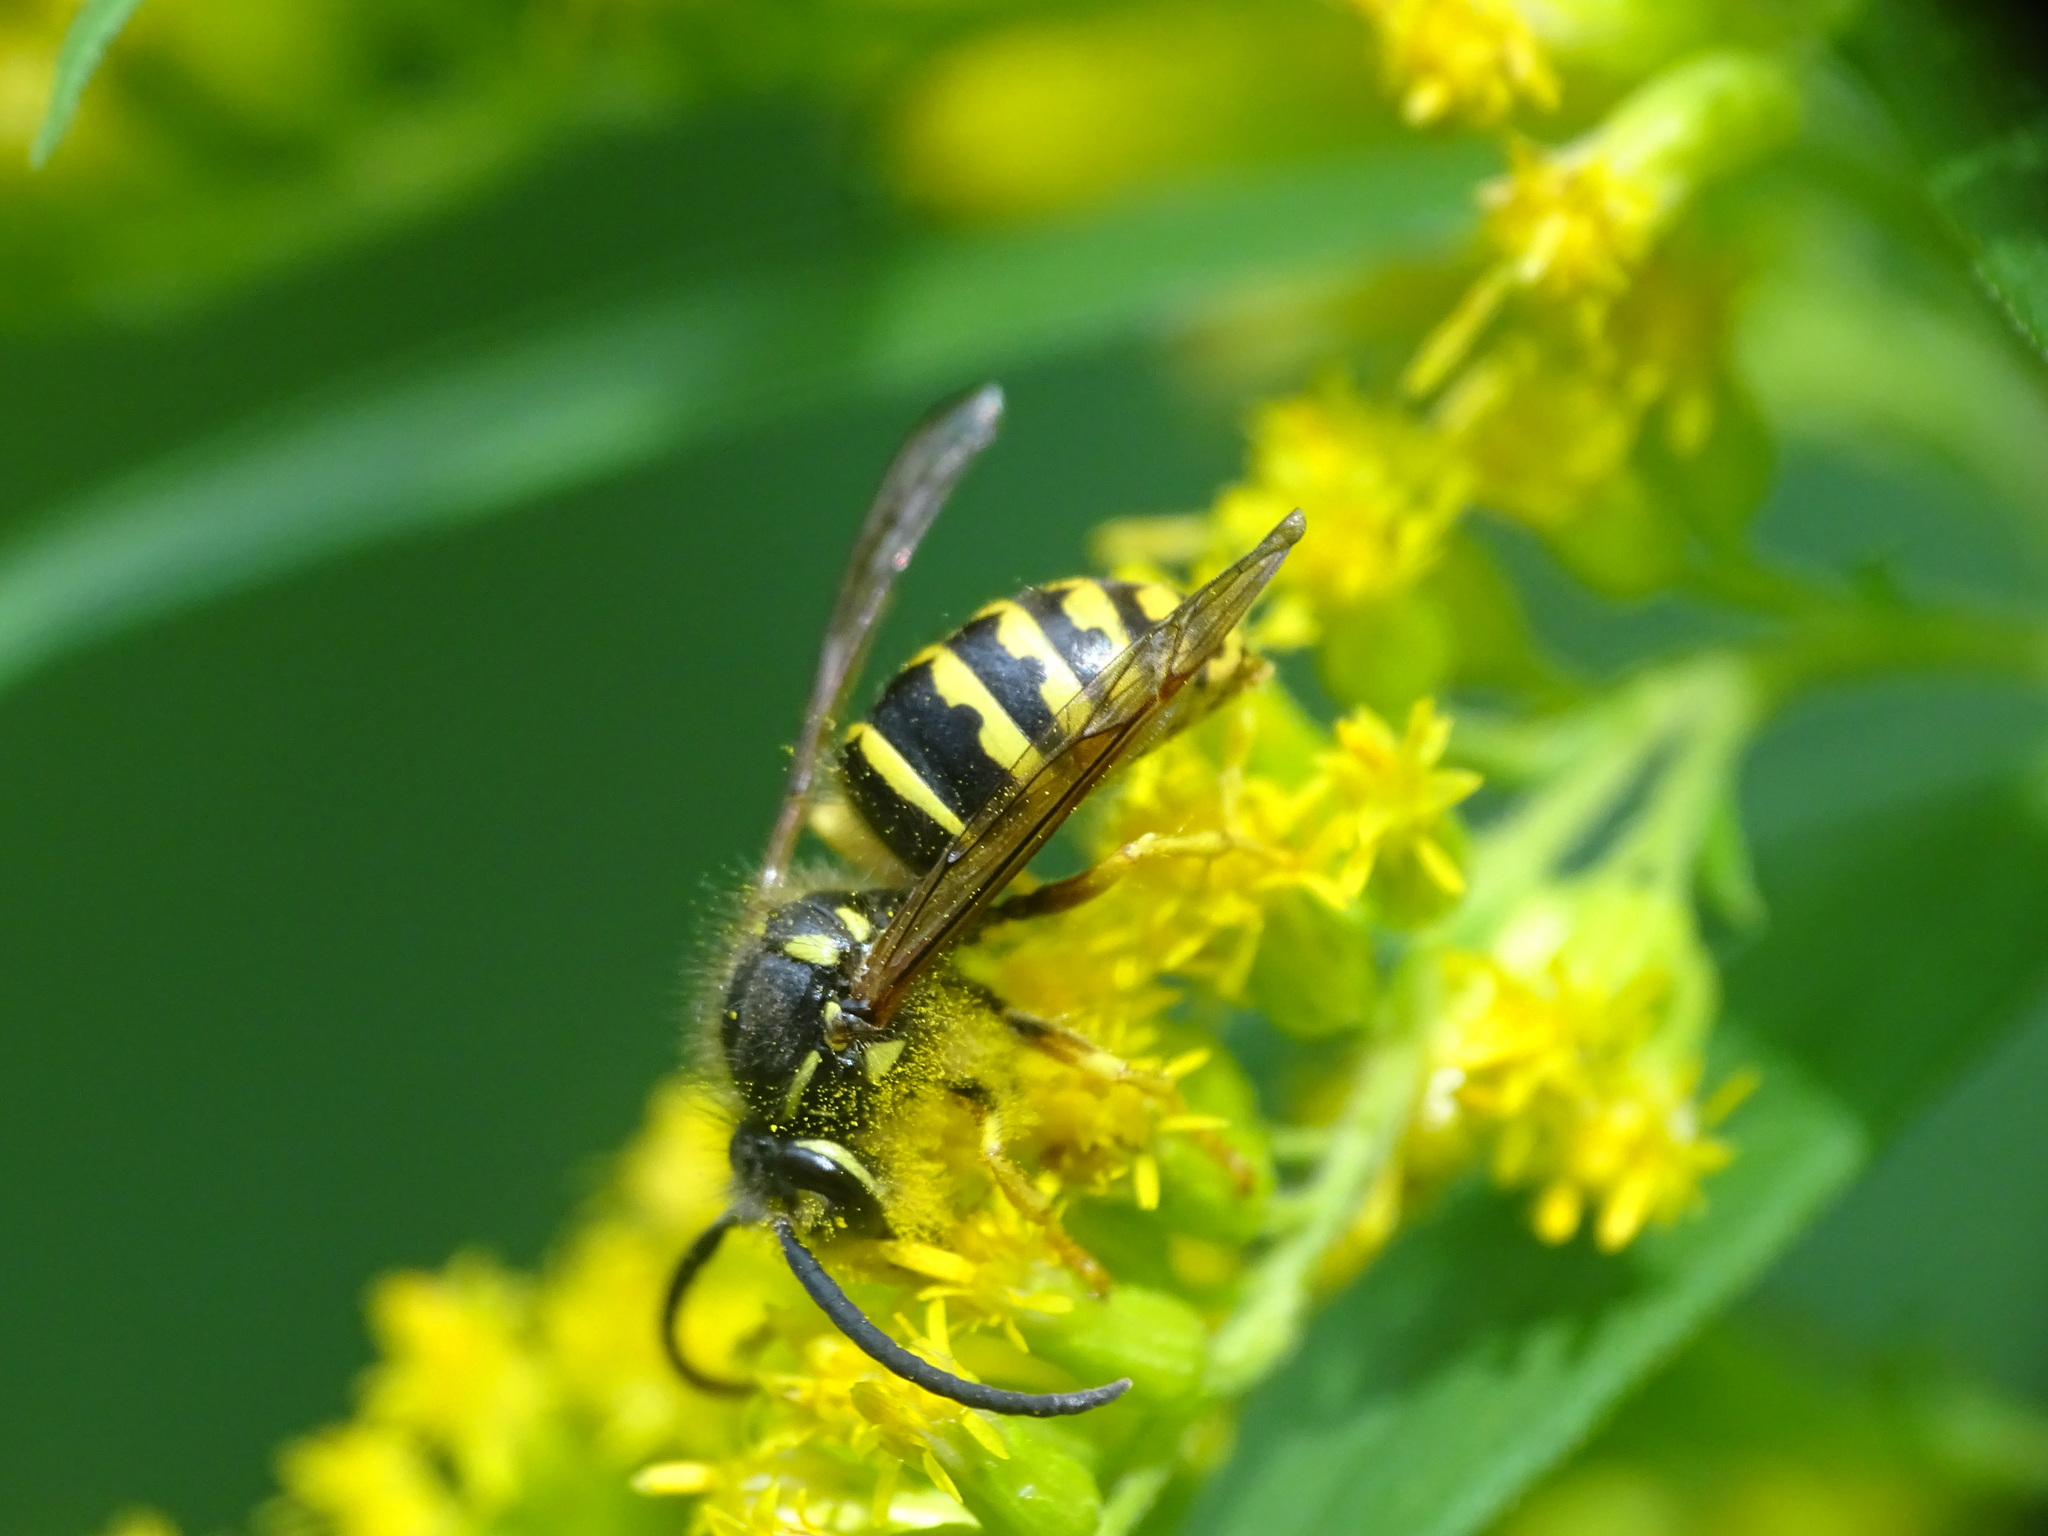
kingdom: Animalia
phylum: Arthropoda
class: Insecta
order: Hymenoptera
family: Vespidae
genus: Dolichovespula
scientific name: Dolichovespula arenaria
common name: Aerial yellowjacket
